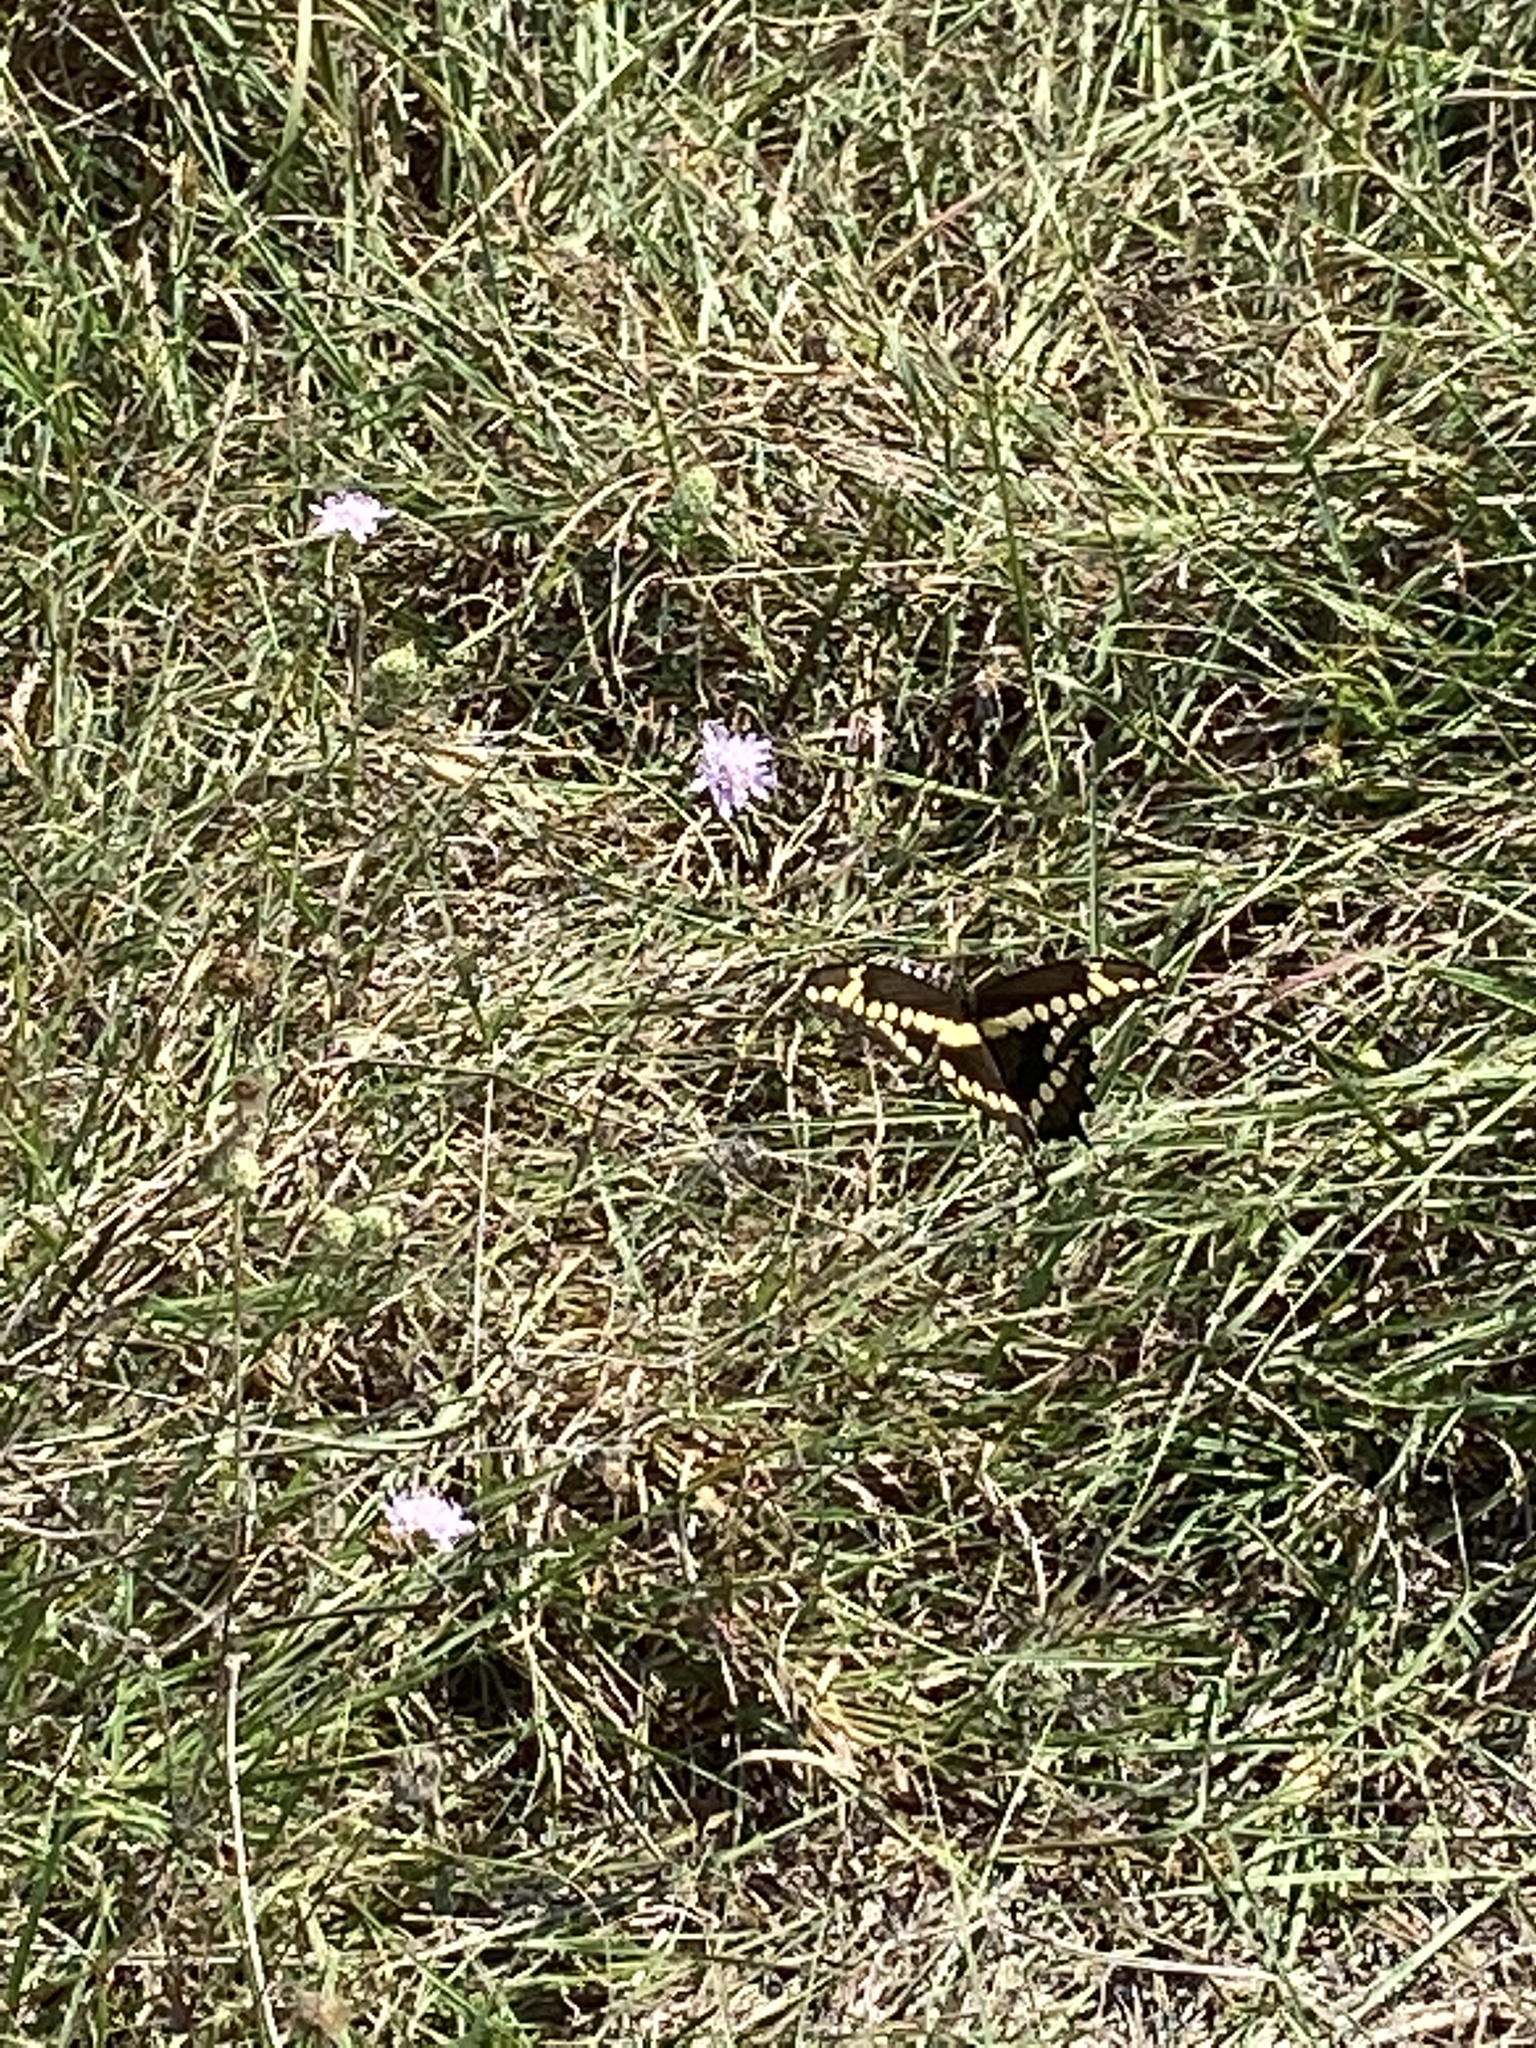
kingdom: Animalia
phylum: Arthropoda
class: Insecta
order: Lepidoptera
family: Papilionidae
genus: Papilio
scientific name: Papilio cresphontes
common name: Giant swallowtail
